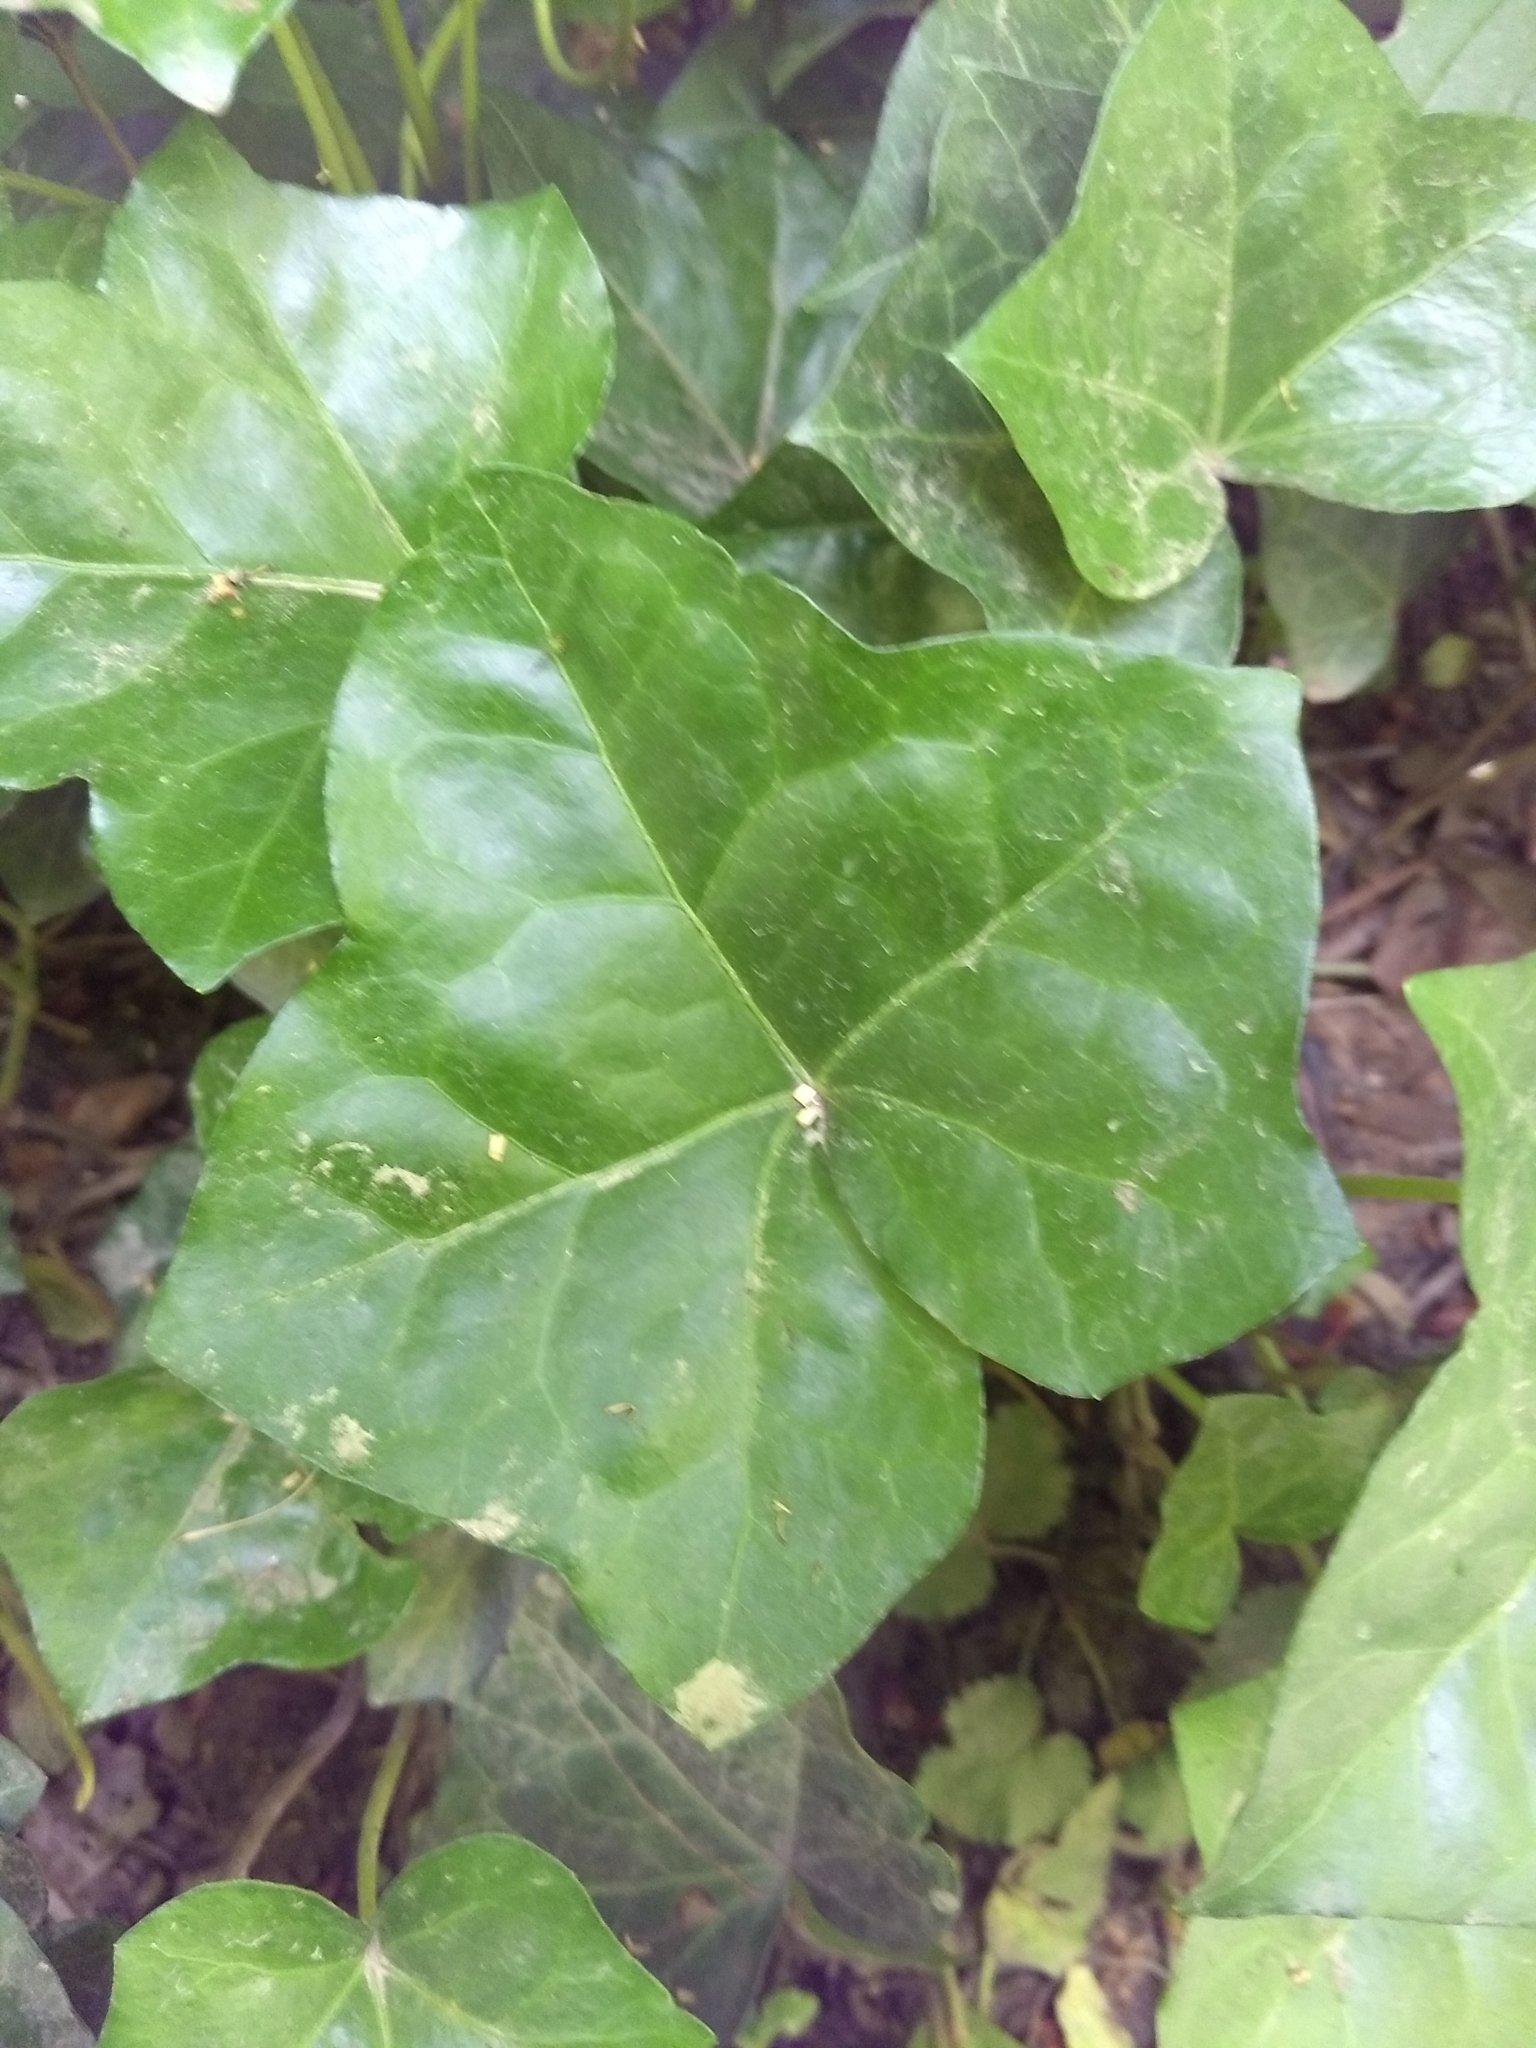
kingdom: Plantae
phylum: Tracheophyta
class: Magnoliopsida
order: Apiales
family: Araliaceae
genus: Hedera
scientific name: Hedera helix
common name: Ivy
